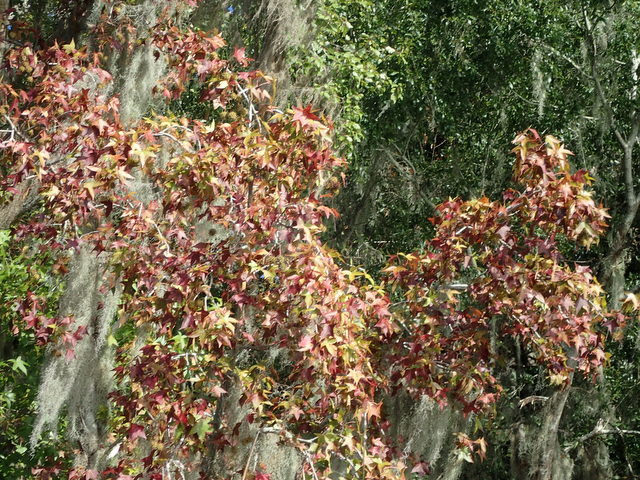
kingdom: Plantae
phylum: Tracheophyta
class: Magnoliopsida
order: Saxifragales
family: Altingiaceae
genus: Liquidambar
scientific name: Liquidambar styraciflua
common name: Sweet gum
